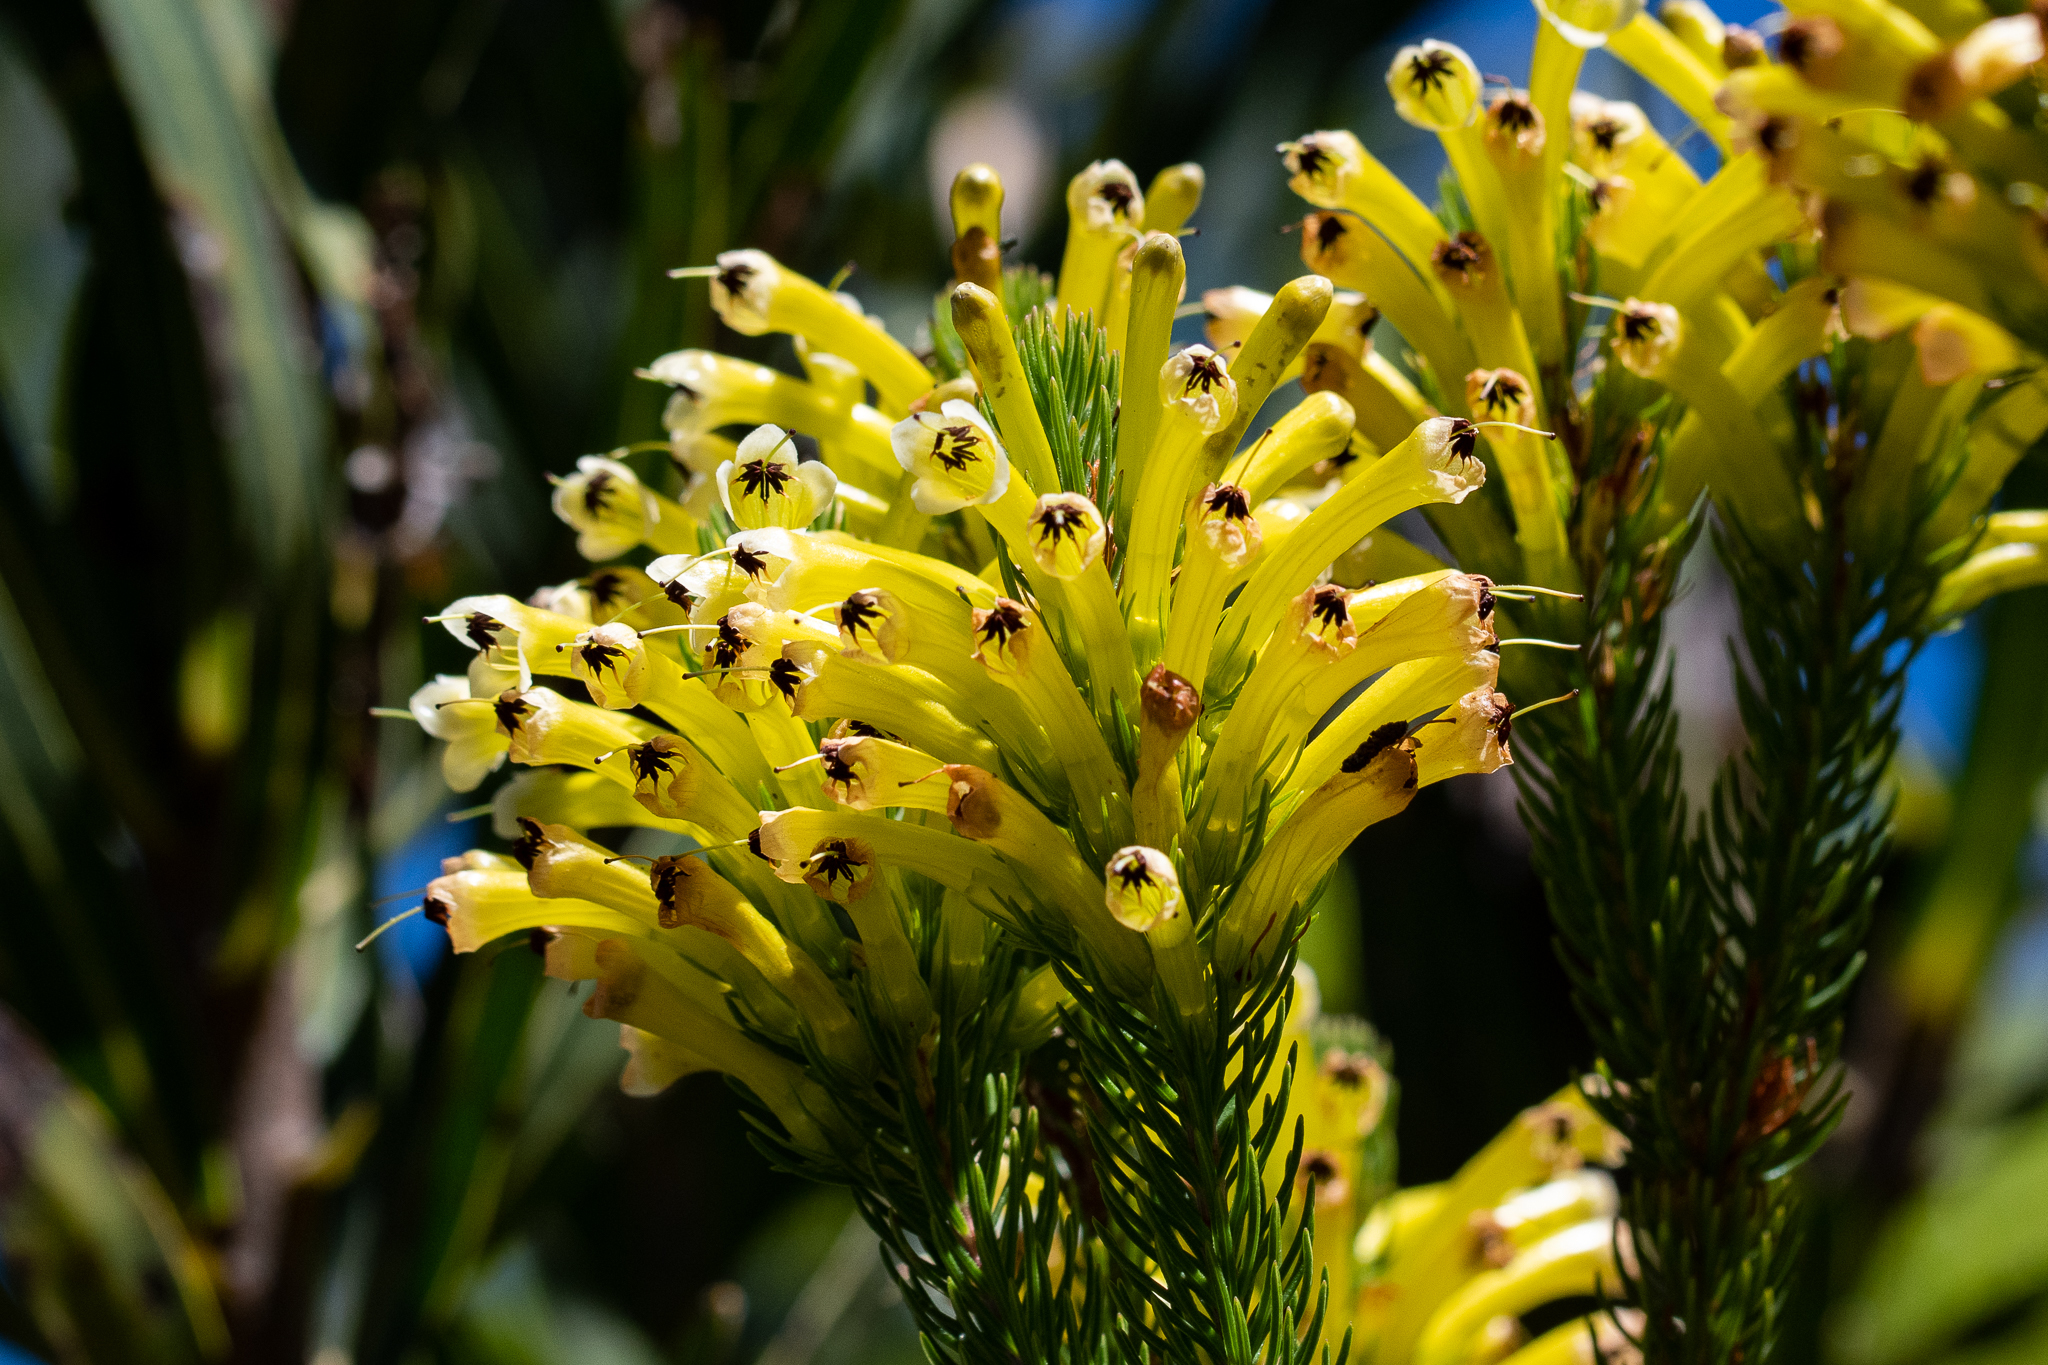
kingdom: Plantae
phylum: Tracheophyta
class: Magnoliopsida
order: Ericales
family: Ericaceae
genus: Erica
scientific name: Erica pinea
